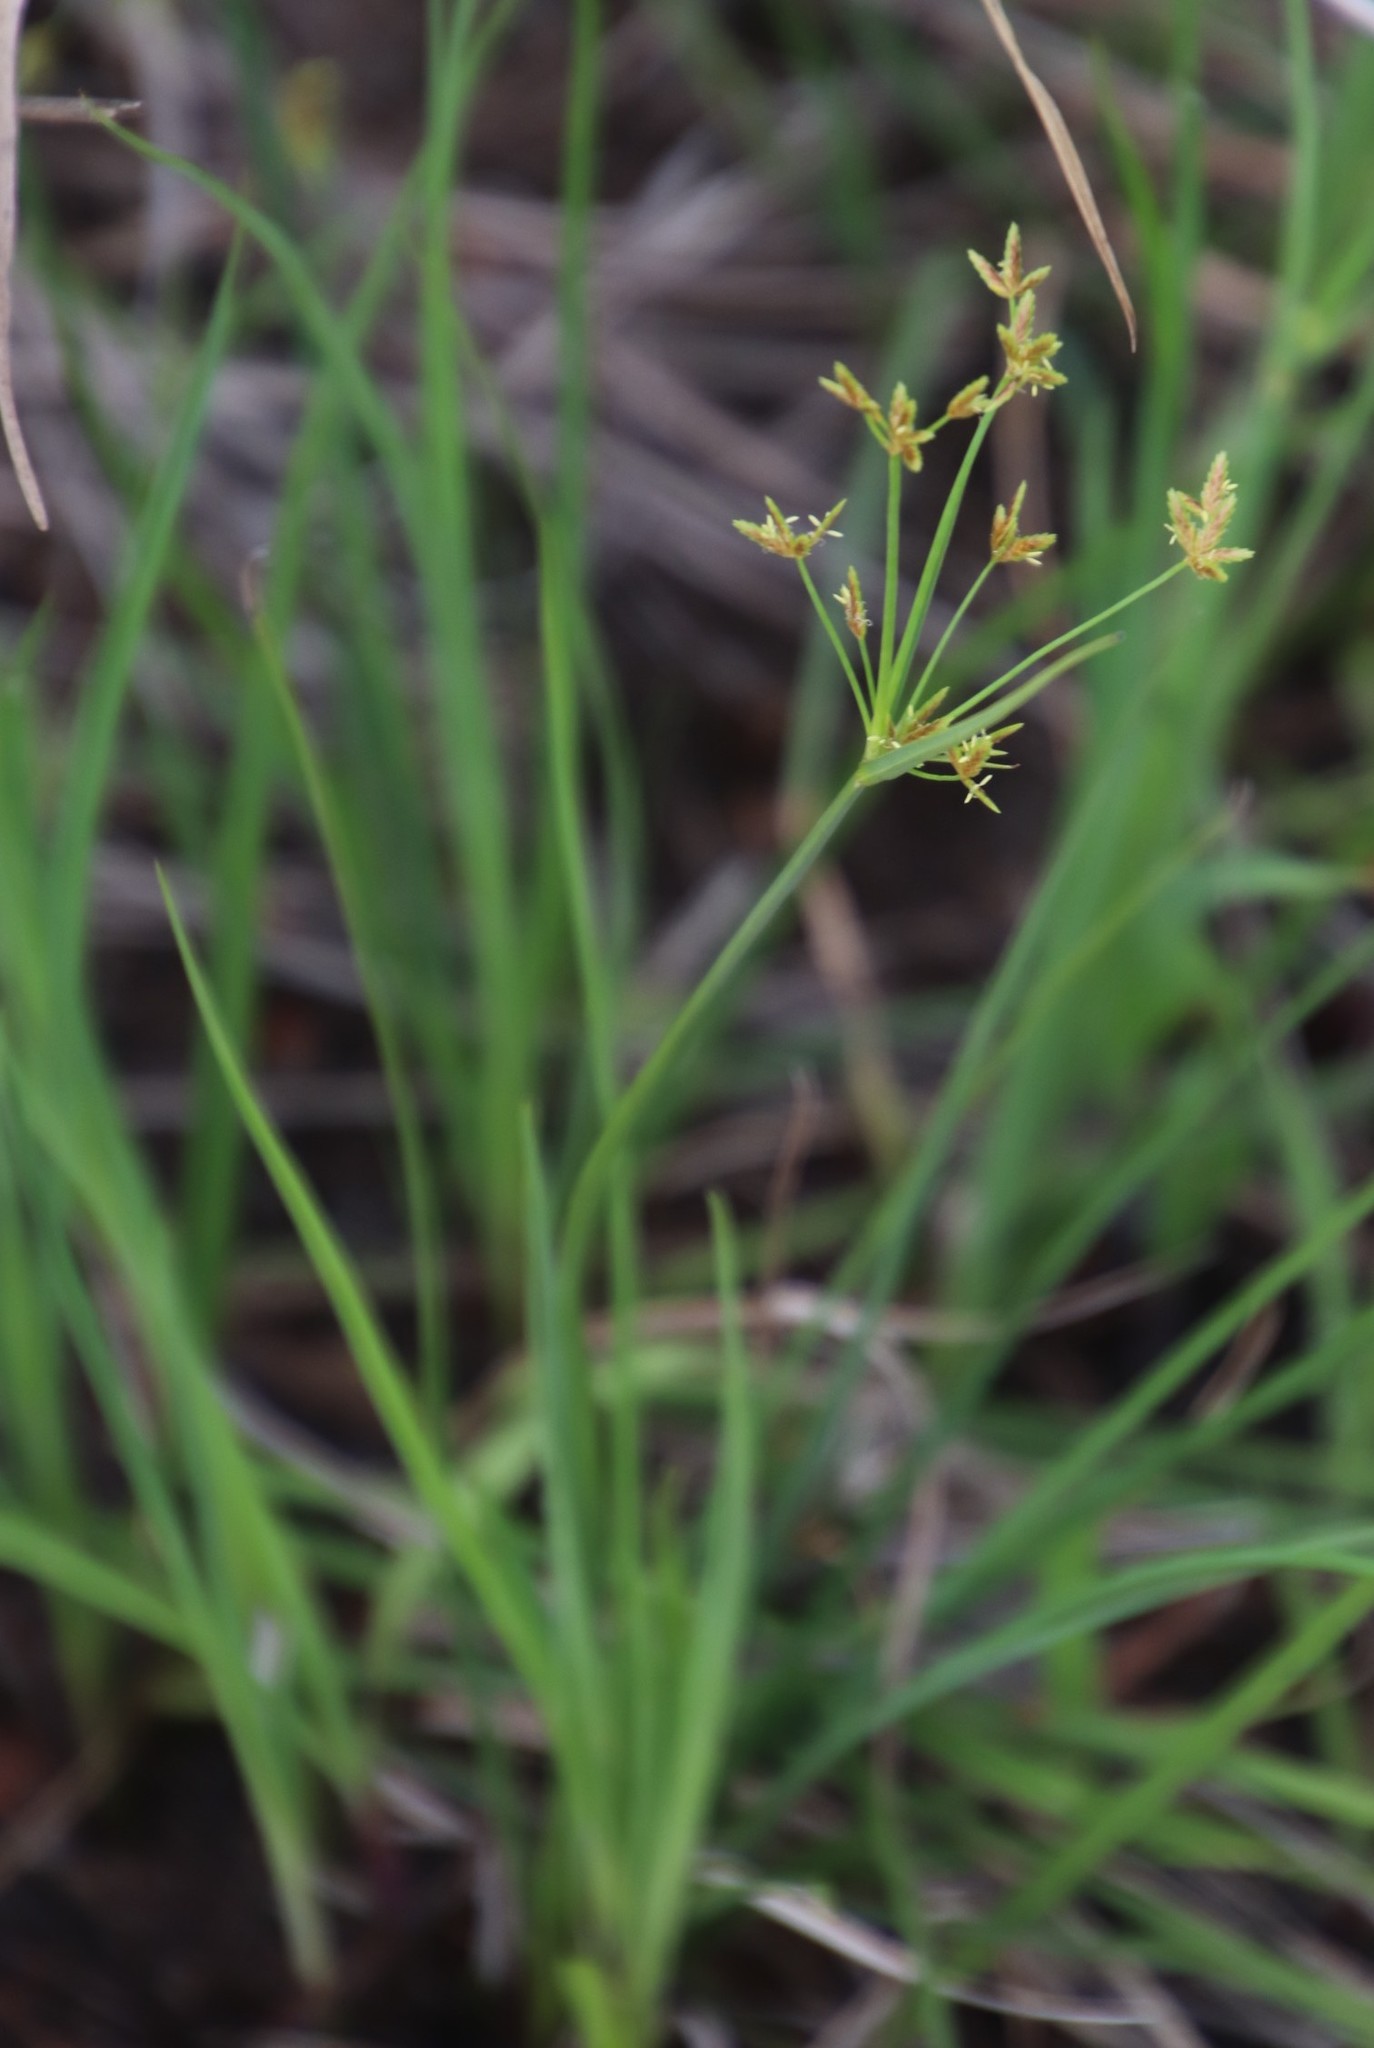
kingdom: Plantae
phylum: Tracheophyta
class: Liliopsida
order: Poales
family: Cyperaceae
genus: Cyperus
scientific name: Cyperus sphaerospermus
